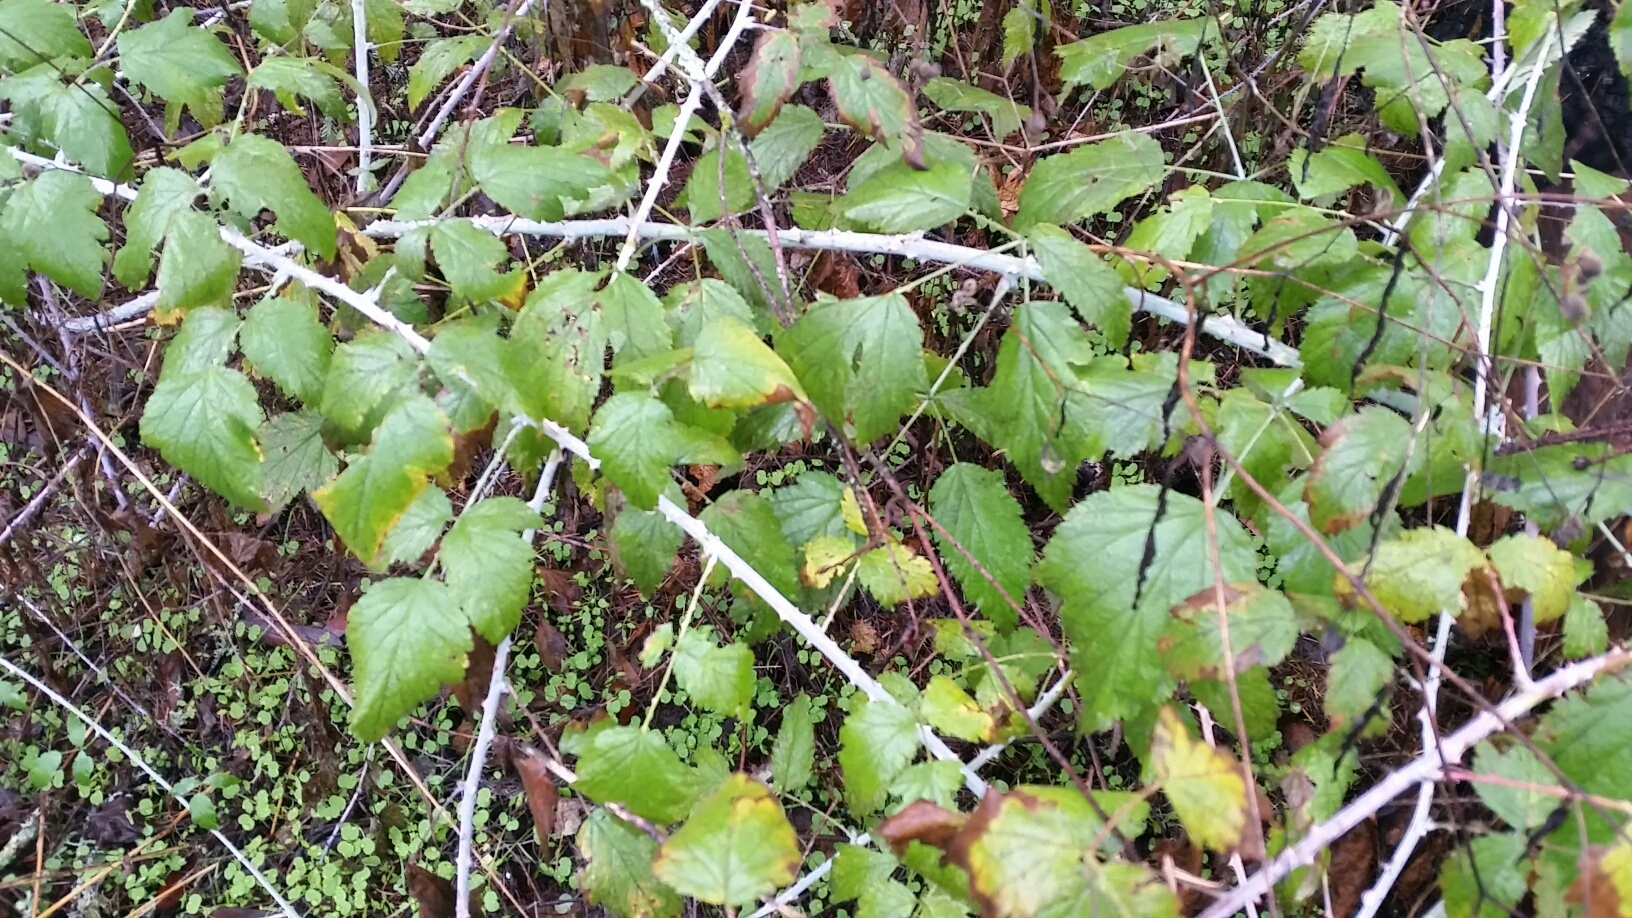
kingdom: Plantae
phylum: Tracheophyta
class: Magnoliopsida
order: Rosales
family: Rosaceae
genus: Rubus
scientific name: Rubus leucodermis
